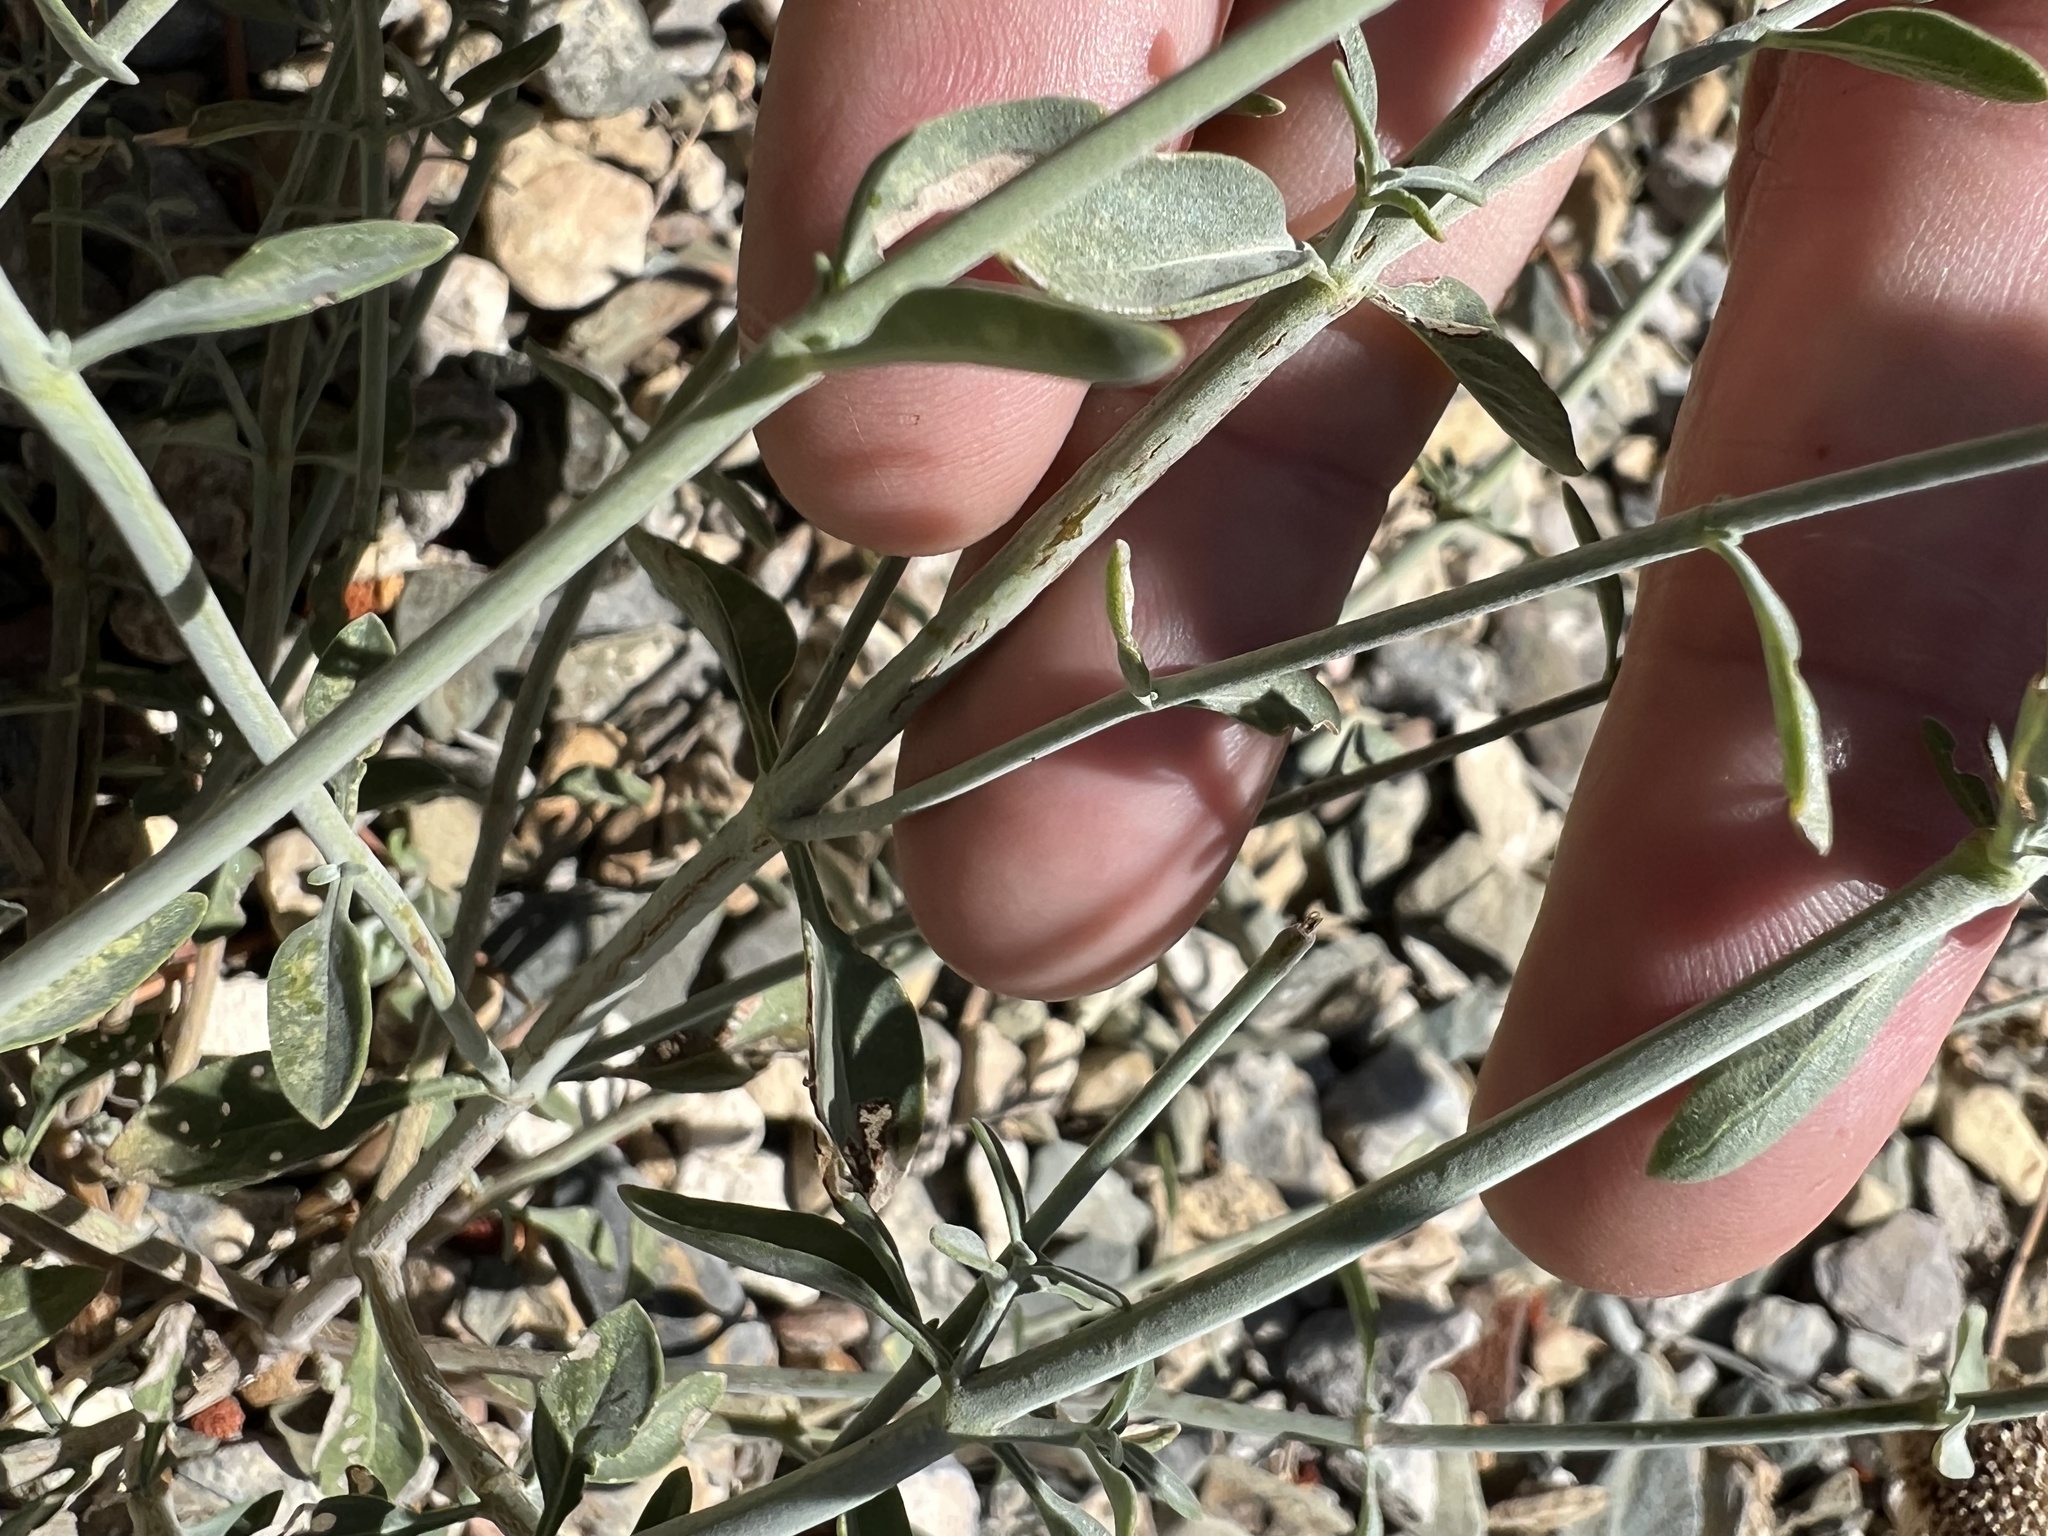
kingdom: Plantae
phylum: Tracheophyta
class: Magnoliopsida
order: Lamiales
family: Lamiaceae
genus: Monardella
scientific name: Monardella linoides
